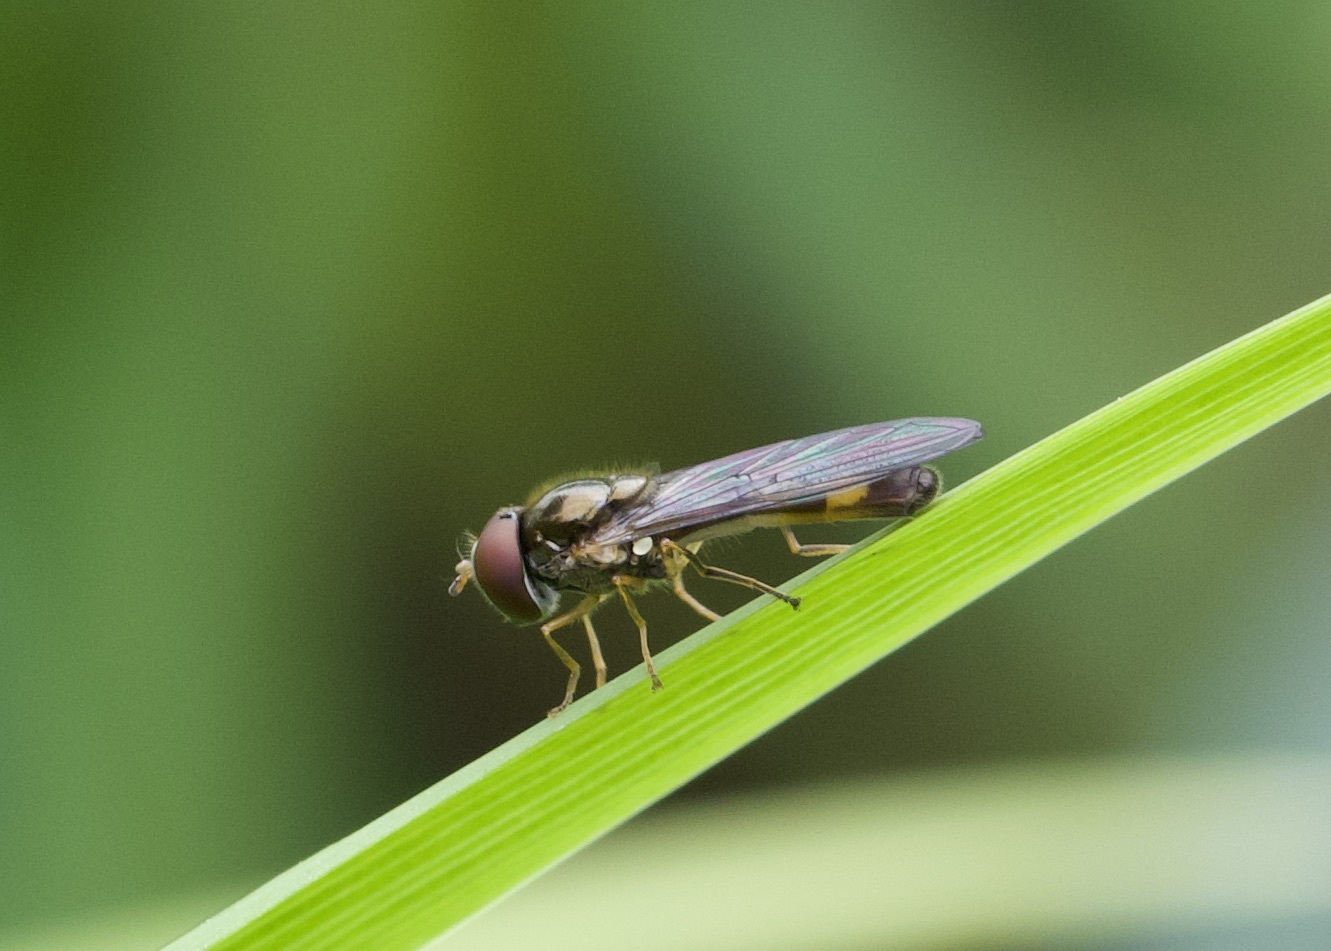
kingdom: Animalia
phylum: Arthropoda
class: Insecta
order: Diptera
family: Syrphidae
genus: Melanostoma
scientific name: Melanostoma scalare
